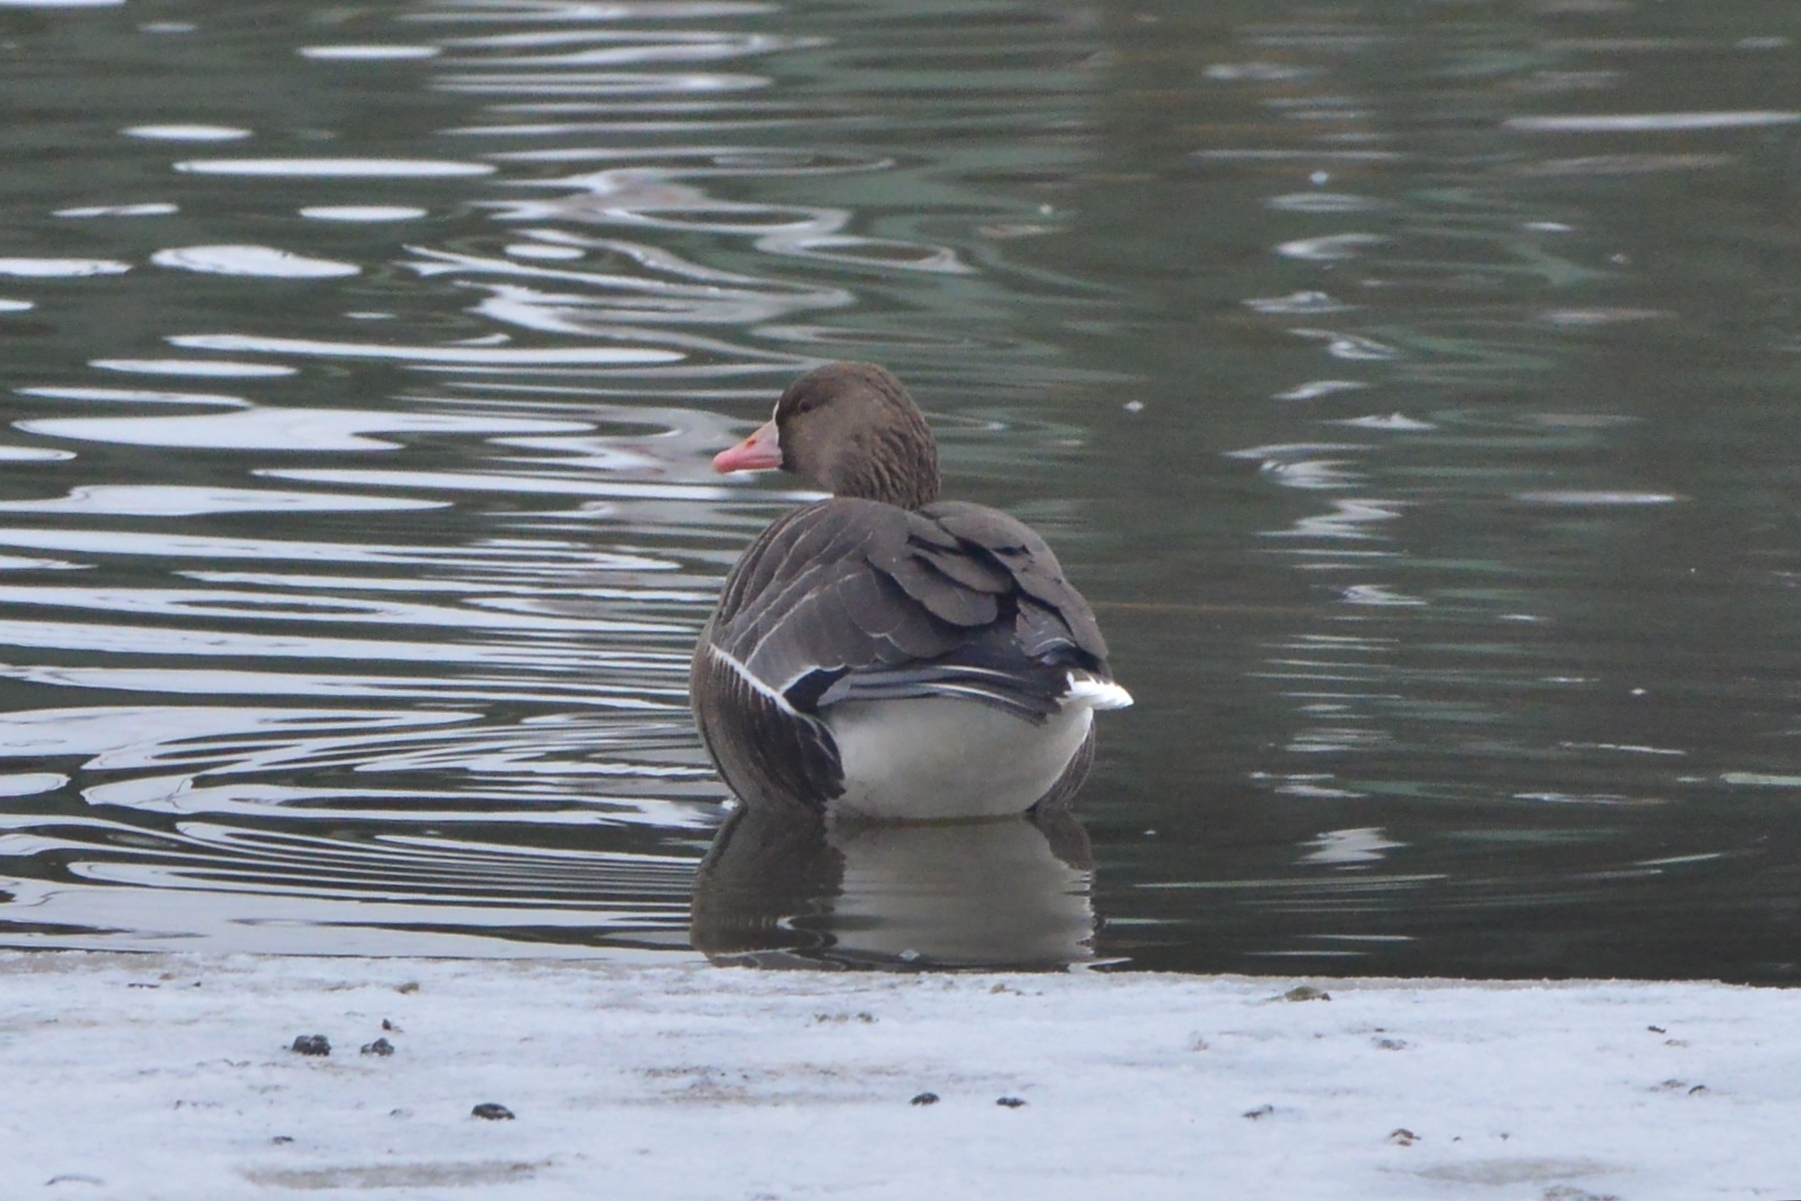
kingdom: Animalia
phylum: Chordata
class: Aves
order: Anseriformes
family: Anatidae
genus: Anser
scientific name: Anser albifrons
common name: Greater white-fronted goose
